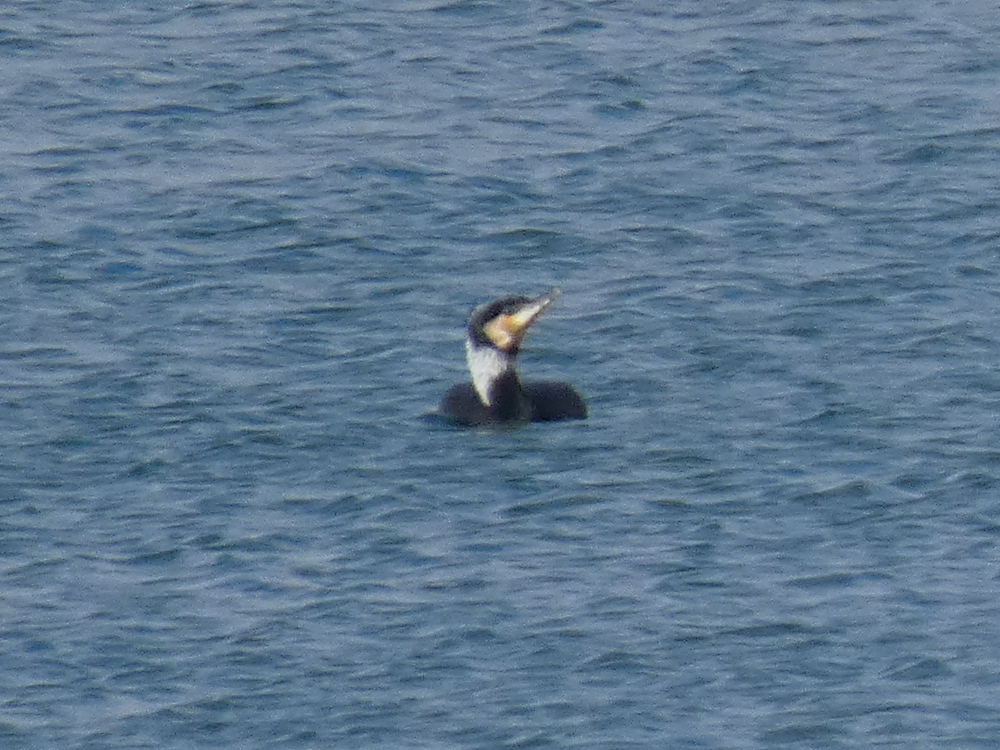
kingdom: Animalia
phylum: Chordata
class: Aves
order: Suliformes
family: Phalacrocoracidae
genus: Phalacrocorax
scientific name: Phalacrocorax carbo
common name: Great cormorant
